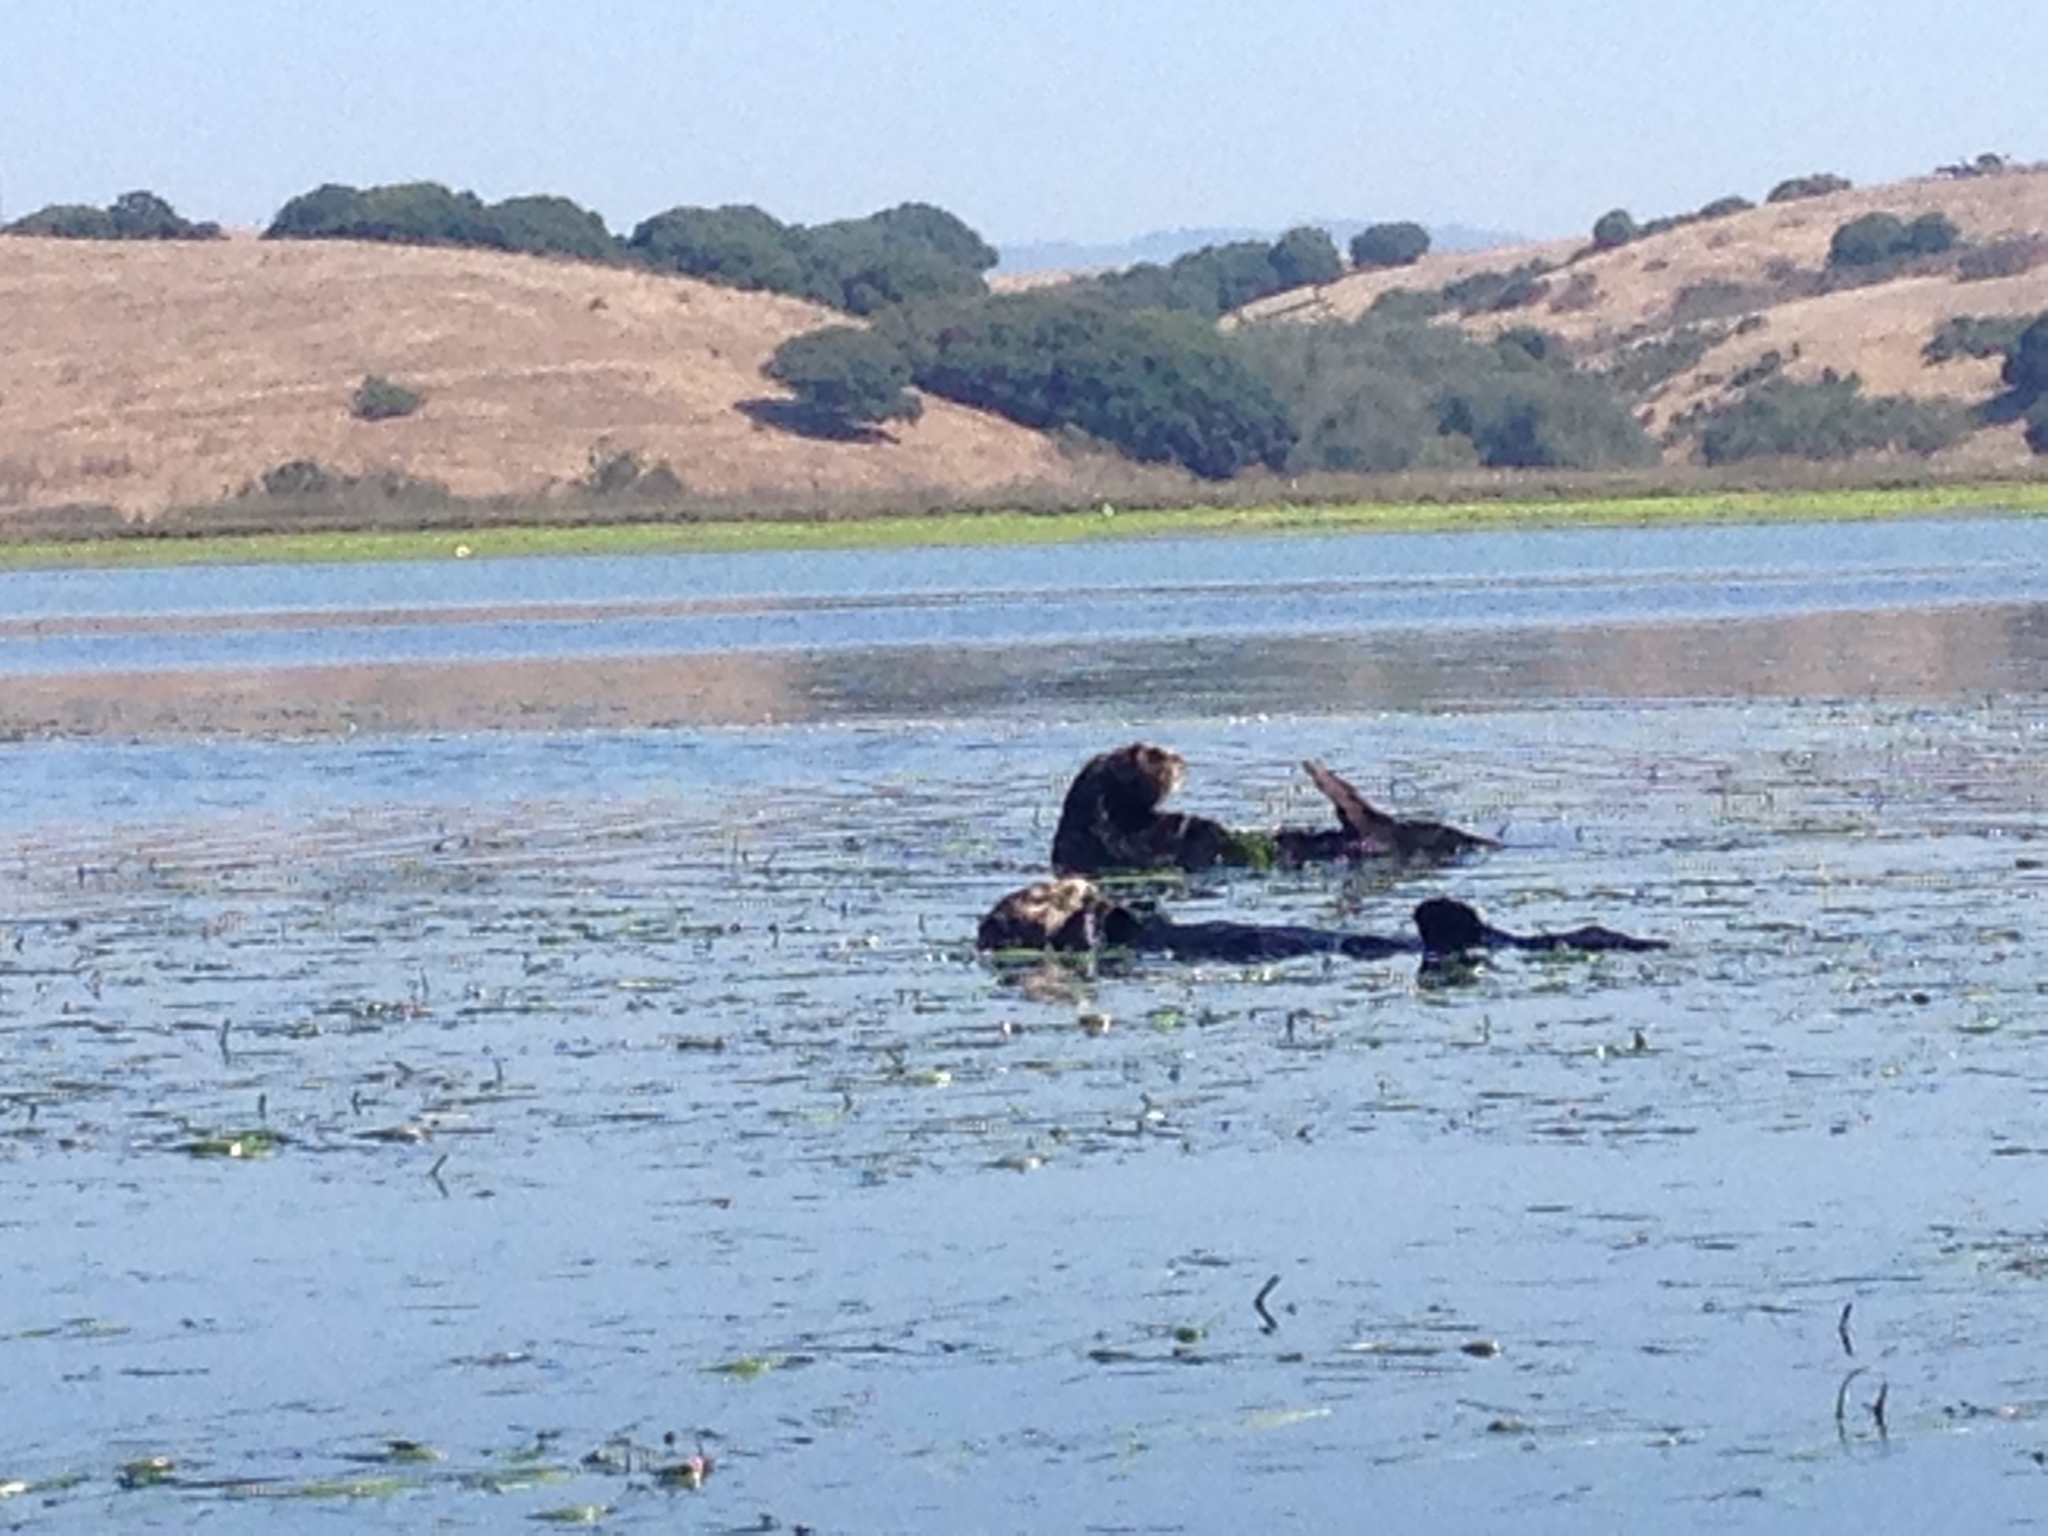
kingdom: Animalia
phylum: Chordata
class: Mammalia
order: Carnivora
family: Mustelidae
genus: Enhydra
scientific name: Enhydra lutris
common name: Sea otter
